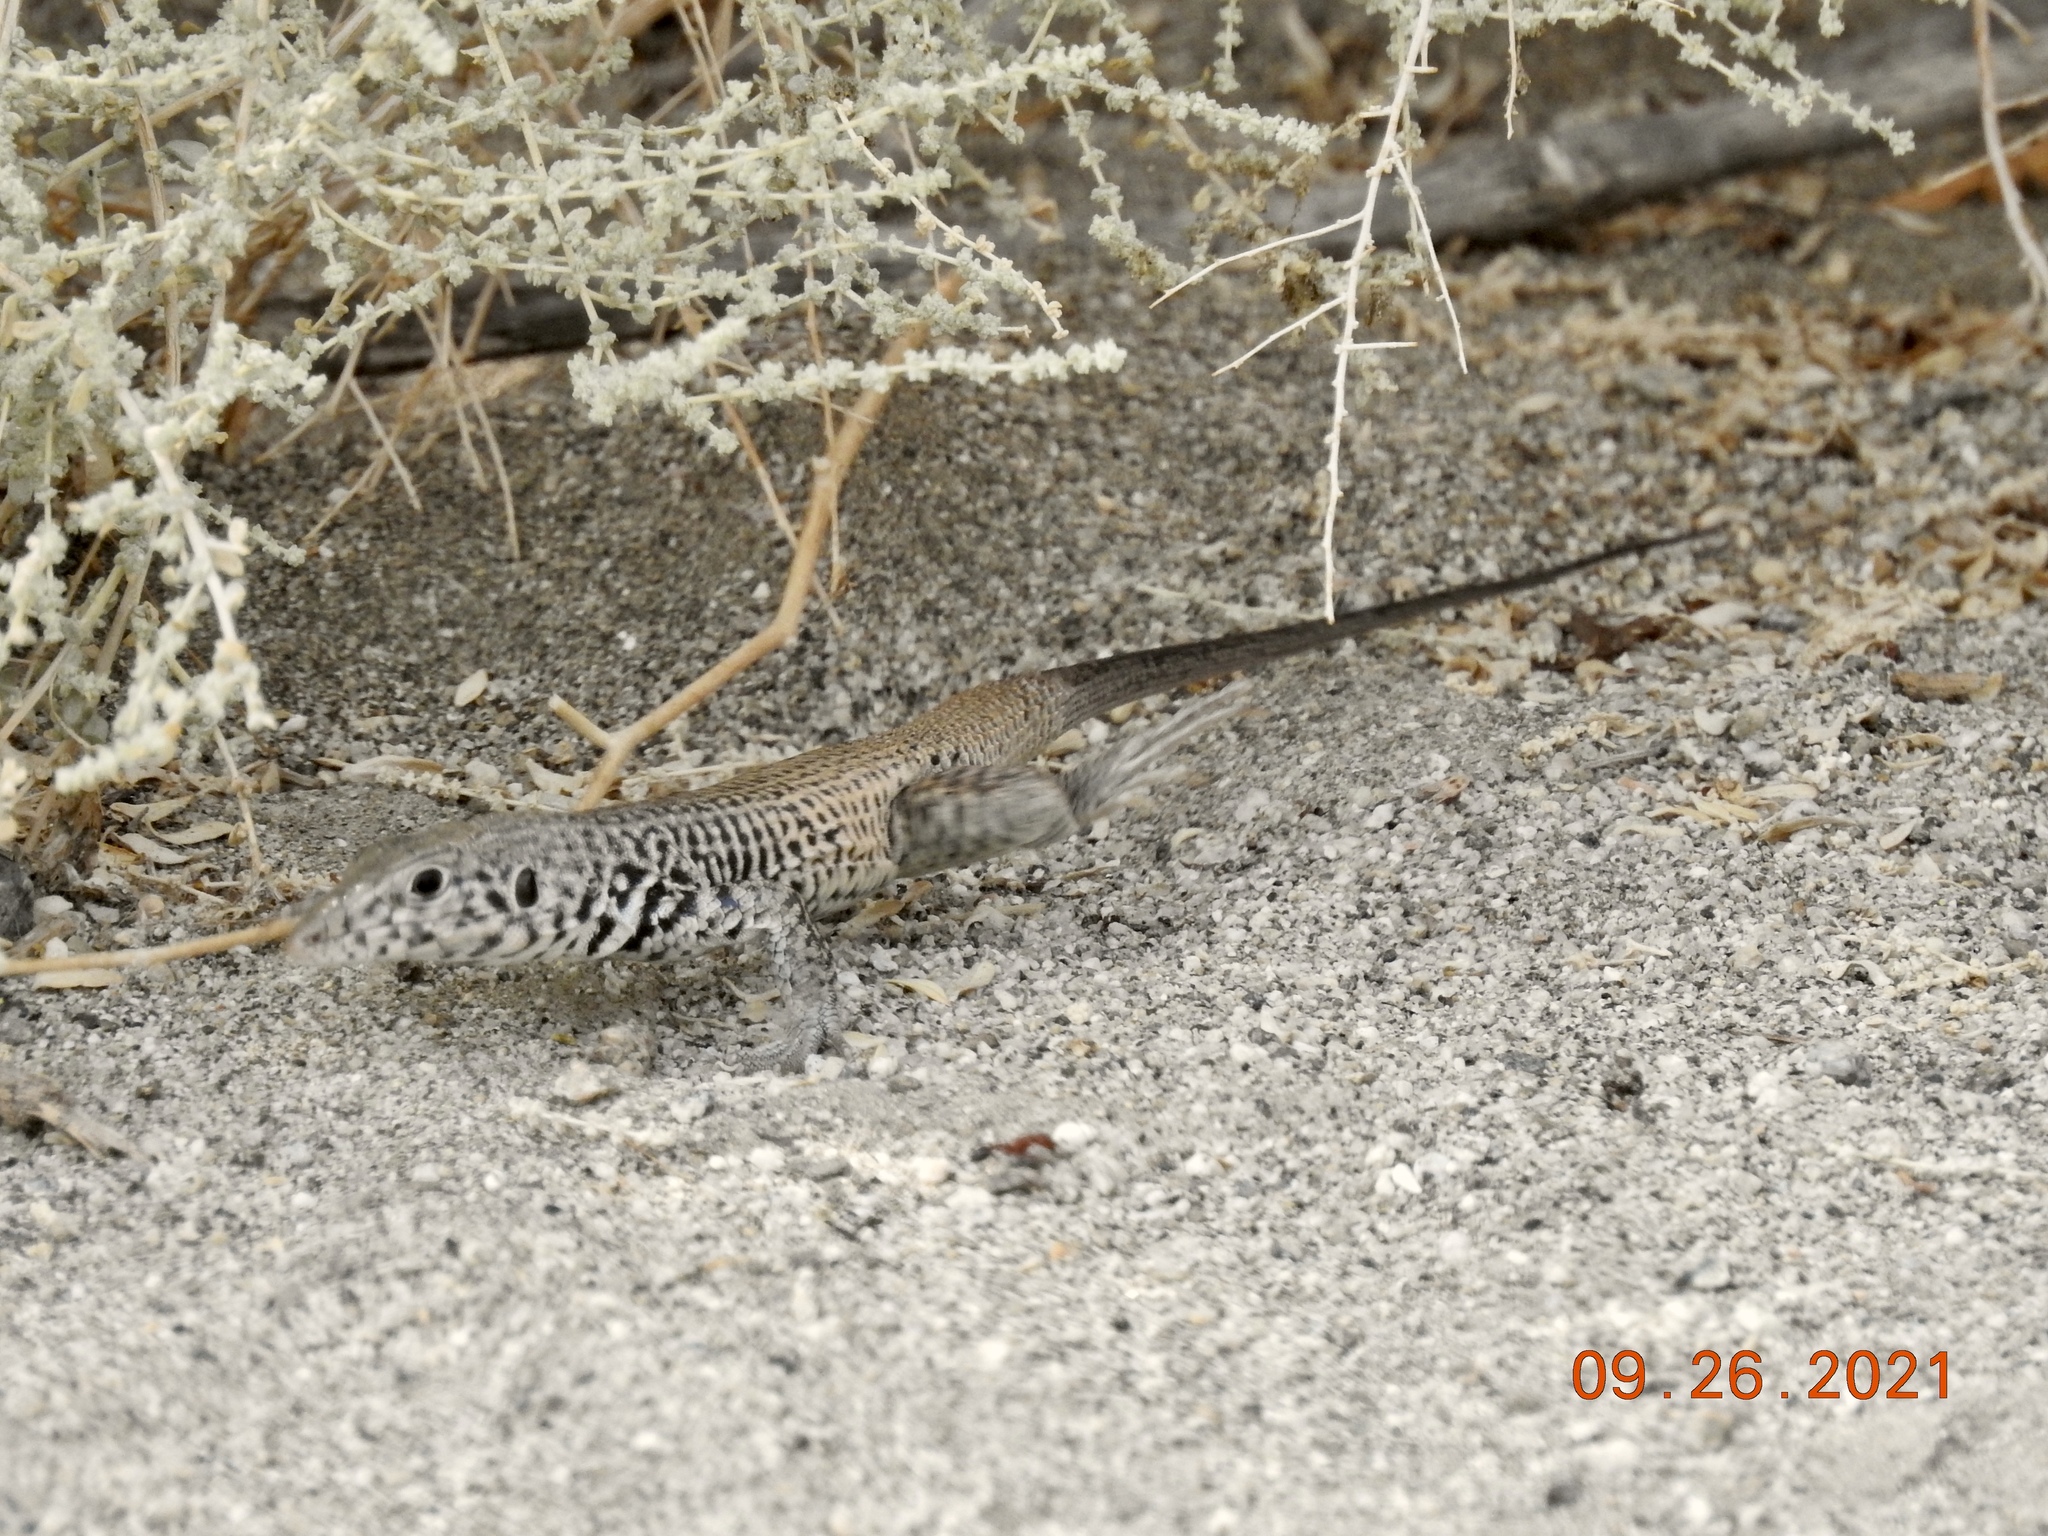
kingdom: Animalia
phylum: Chordata
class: Squamata
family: Teiidae
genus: Aspidoscelis
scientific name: Aspidoscelis tigris
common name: Tiger whiptail
